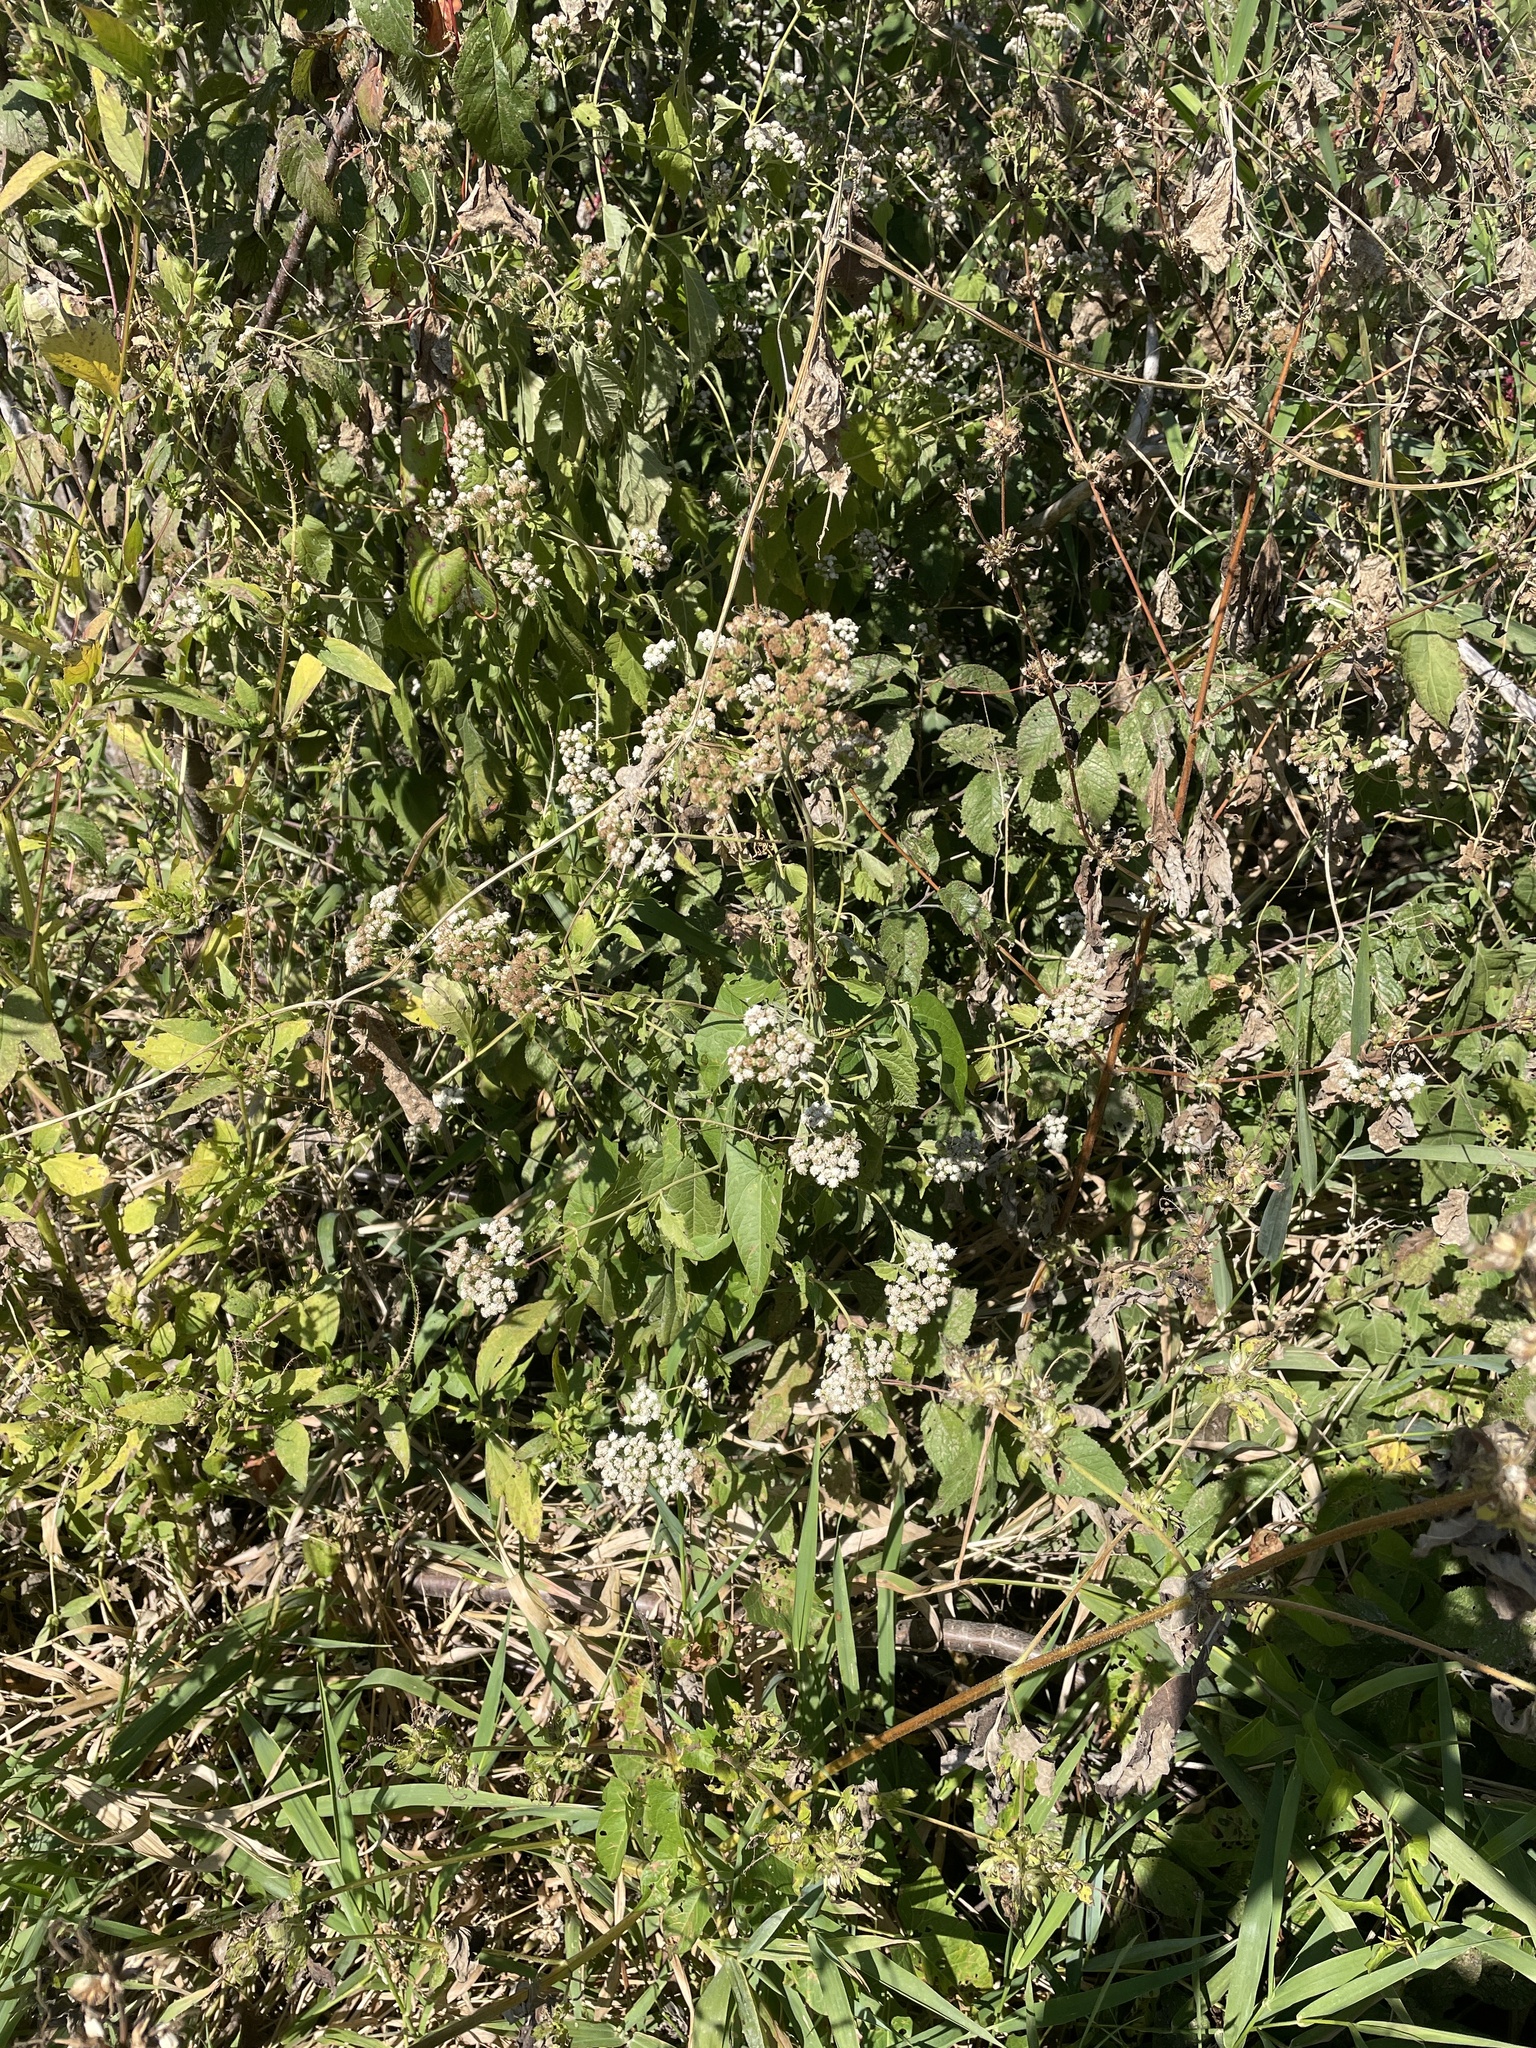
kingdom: Plantae
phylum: Tracheophyta
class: Magnoliopsida
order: Asterales
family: Asteraceae
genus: Ageratina
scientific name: Ageratina altissima
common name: White snakeroot
